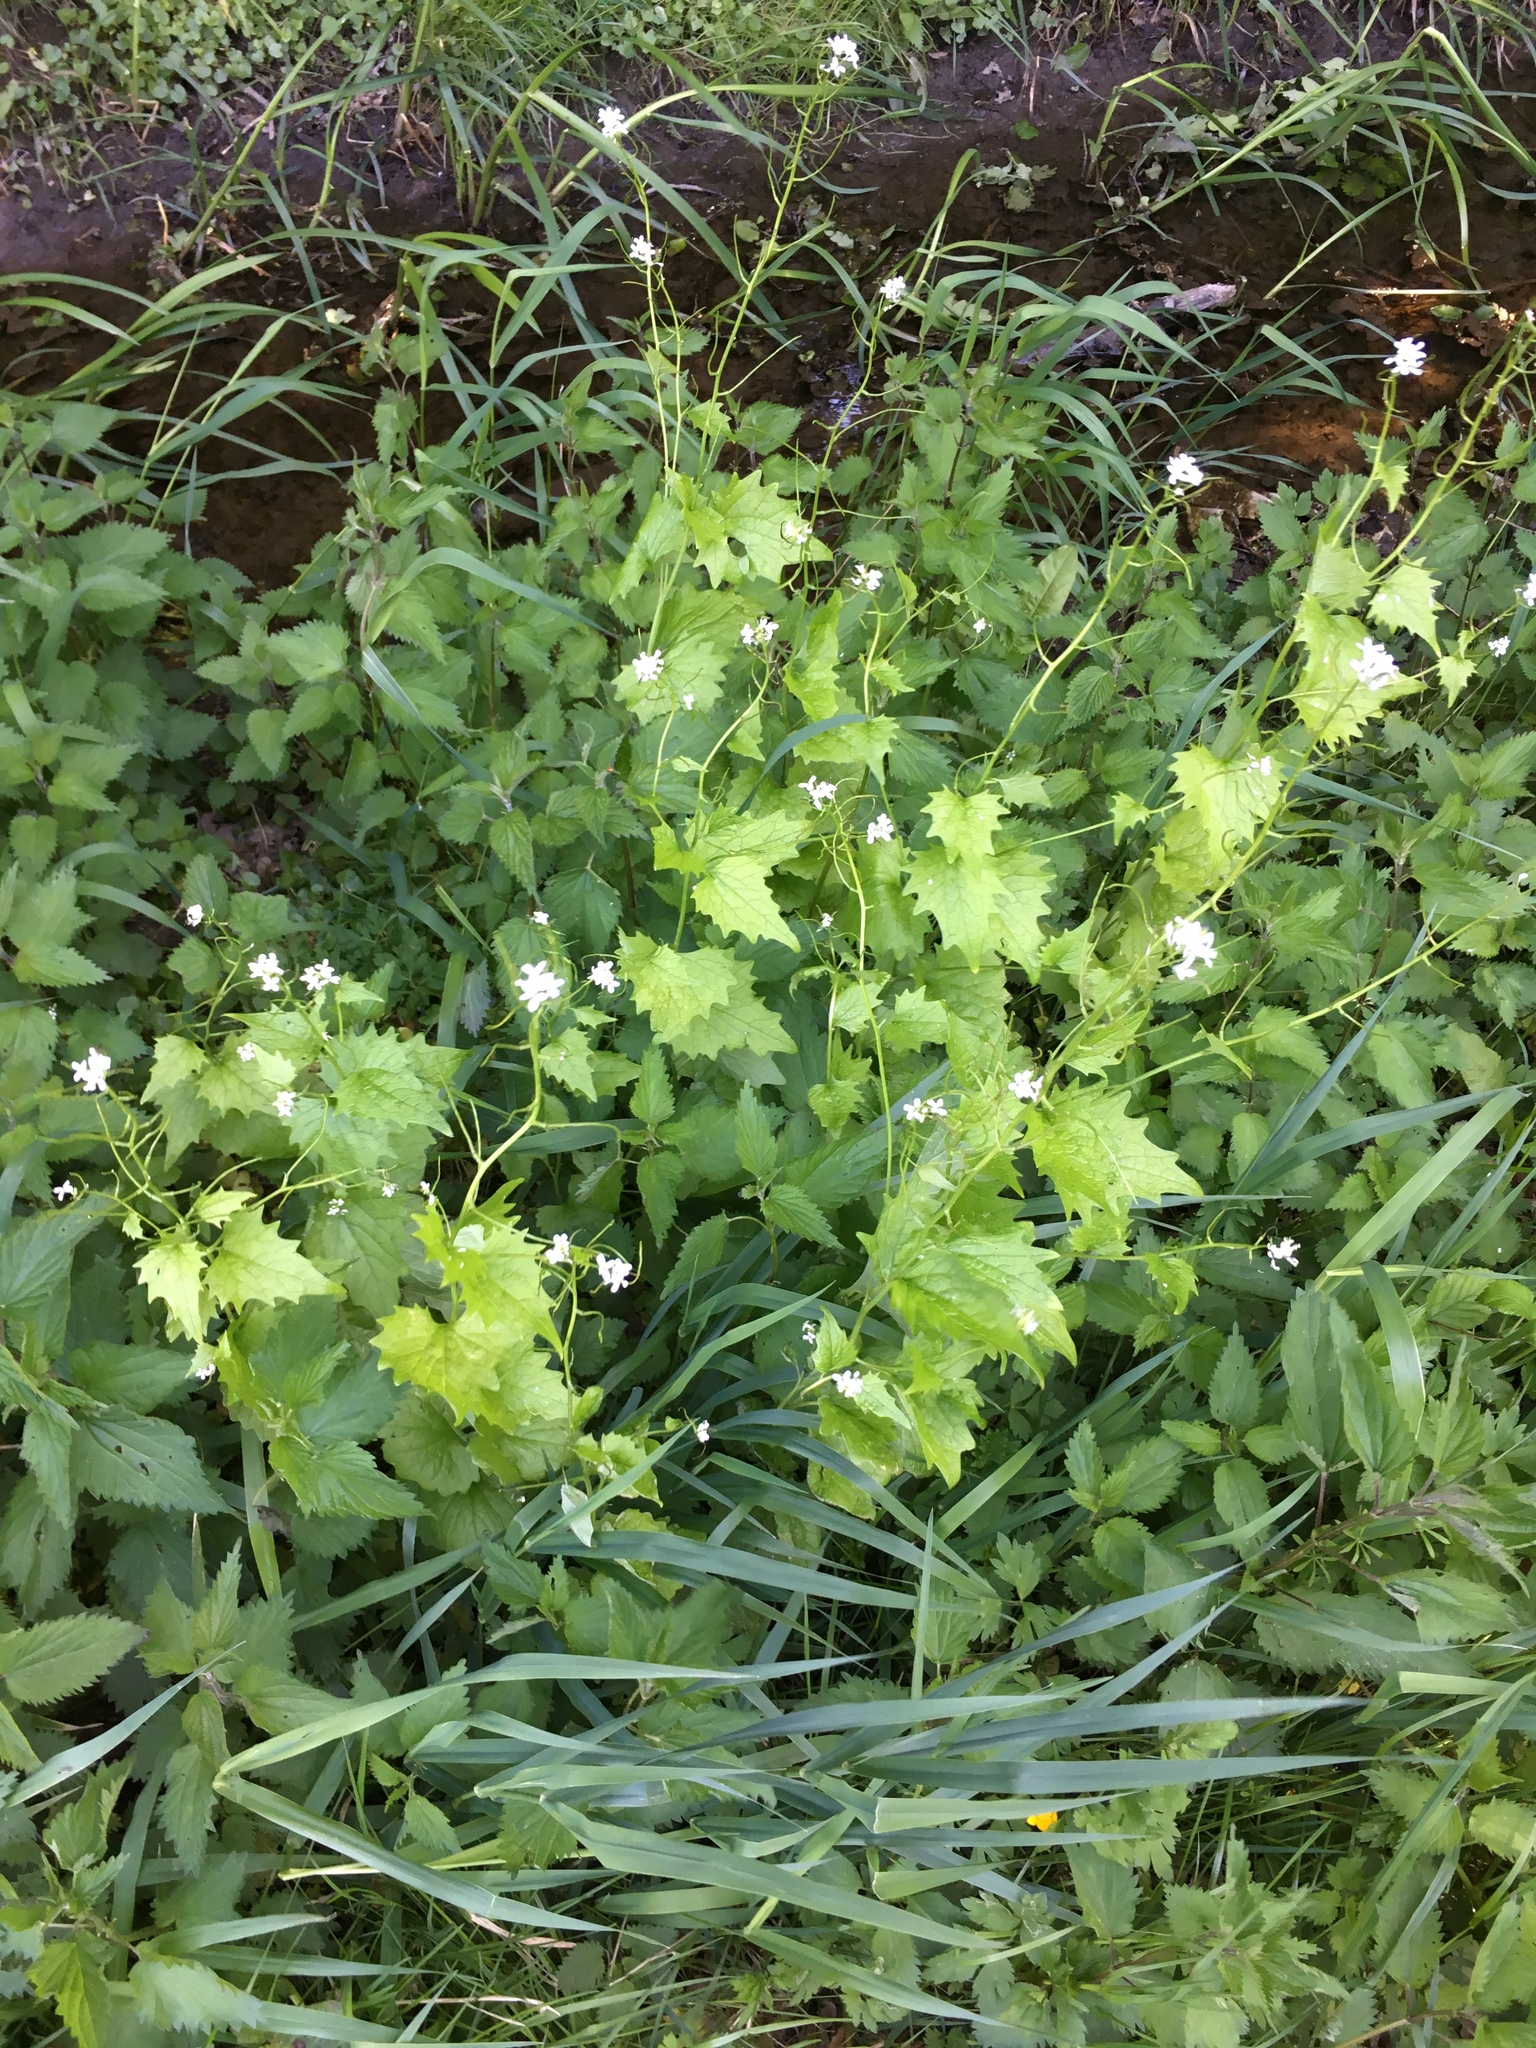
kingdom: Plantae
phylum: Tracheophyta
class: Magnoliopsida
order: Brassicales
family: Brassicaceae
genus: Alliaria
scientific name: Alliaria petiolata
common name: Garlic mustard
